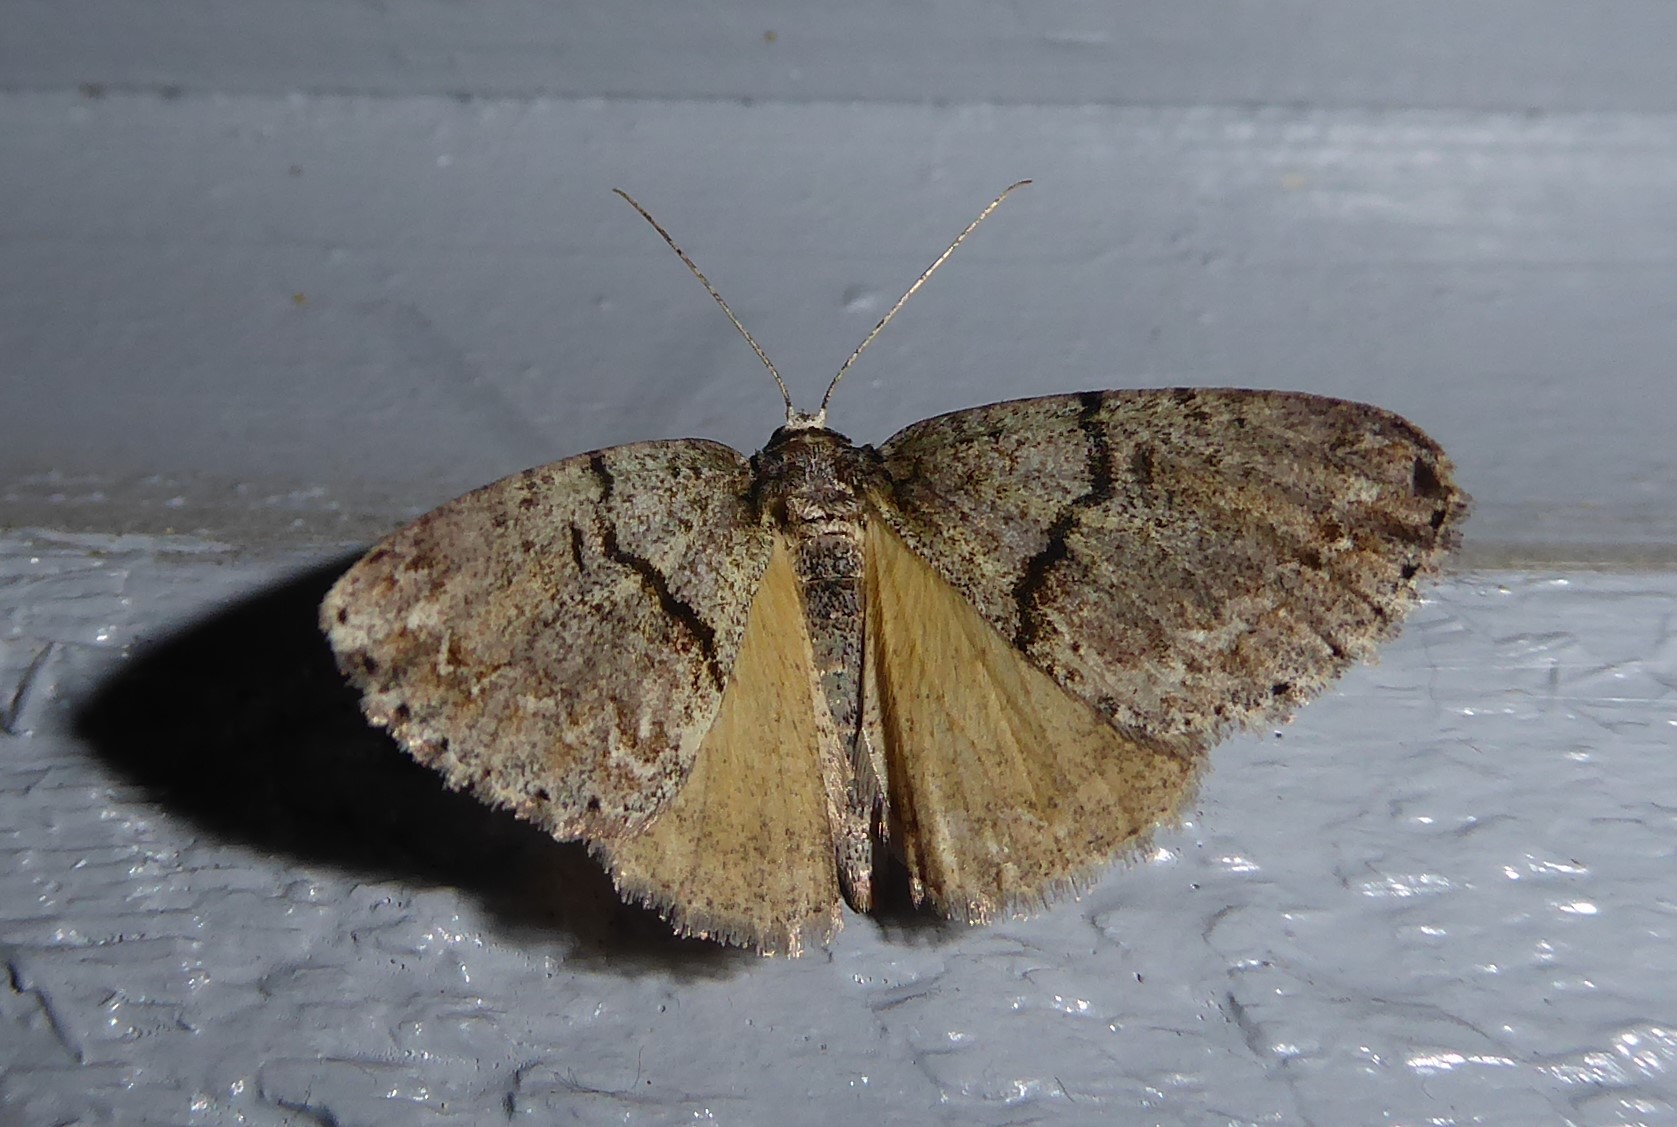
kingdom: Animalia
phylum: Arthropoda
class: Insecta
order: Lepidoptera
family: Geometridae
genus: Pseudocoremia
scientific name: Pseudocoremia suavis
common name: Common forest looper
